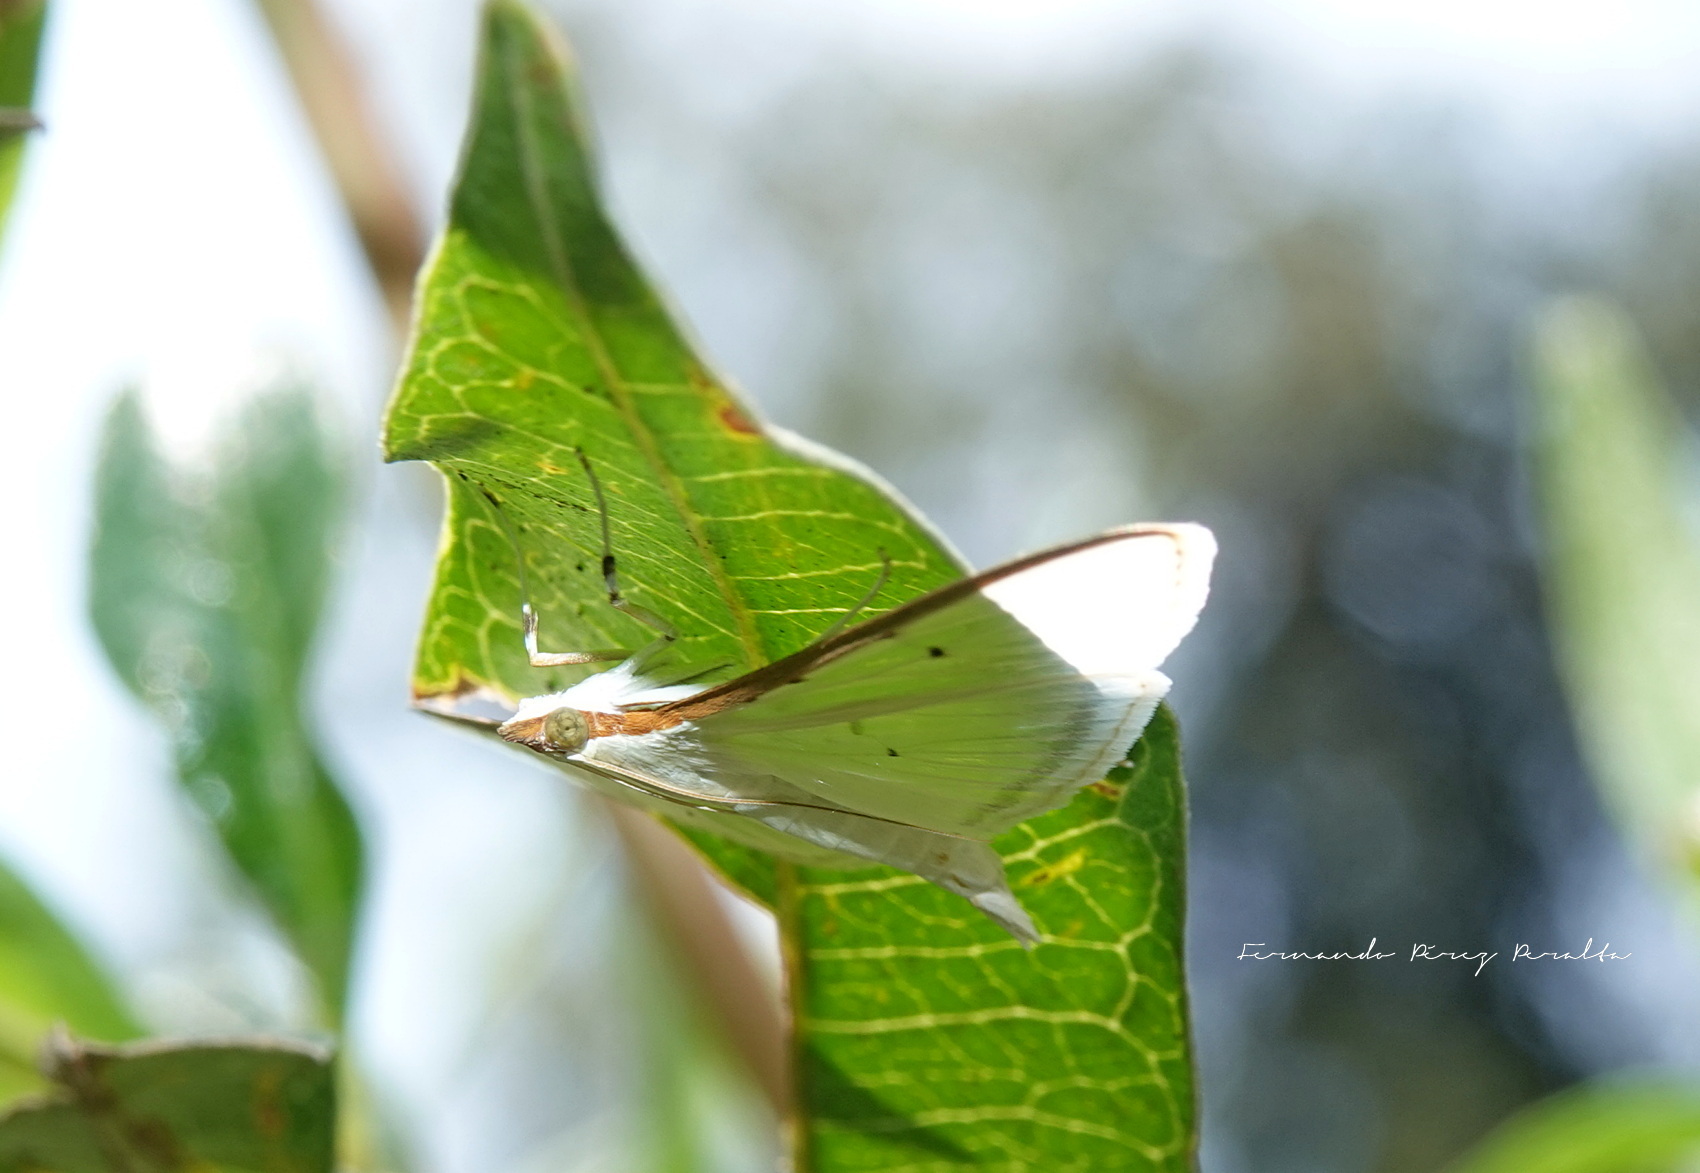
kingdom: Animalia
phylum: Arthropoda
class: Insecta
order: Lepidoptera
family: Crambidae
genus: Palpita
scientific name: Palpita quadristigmalis
